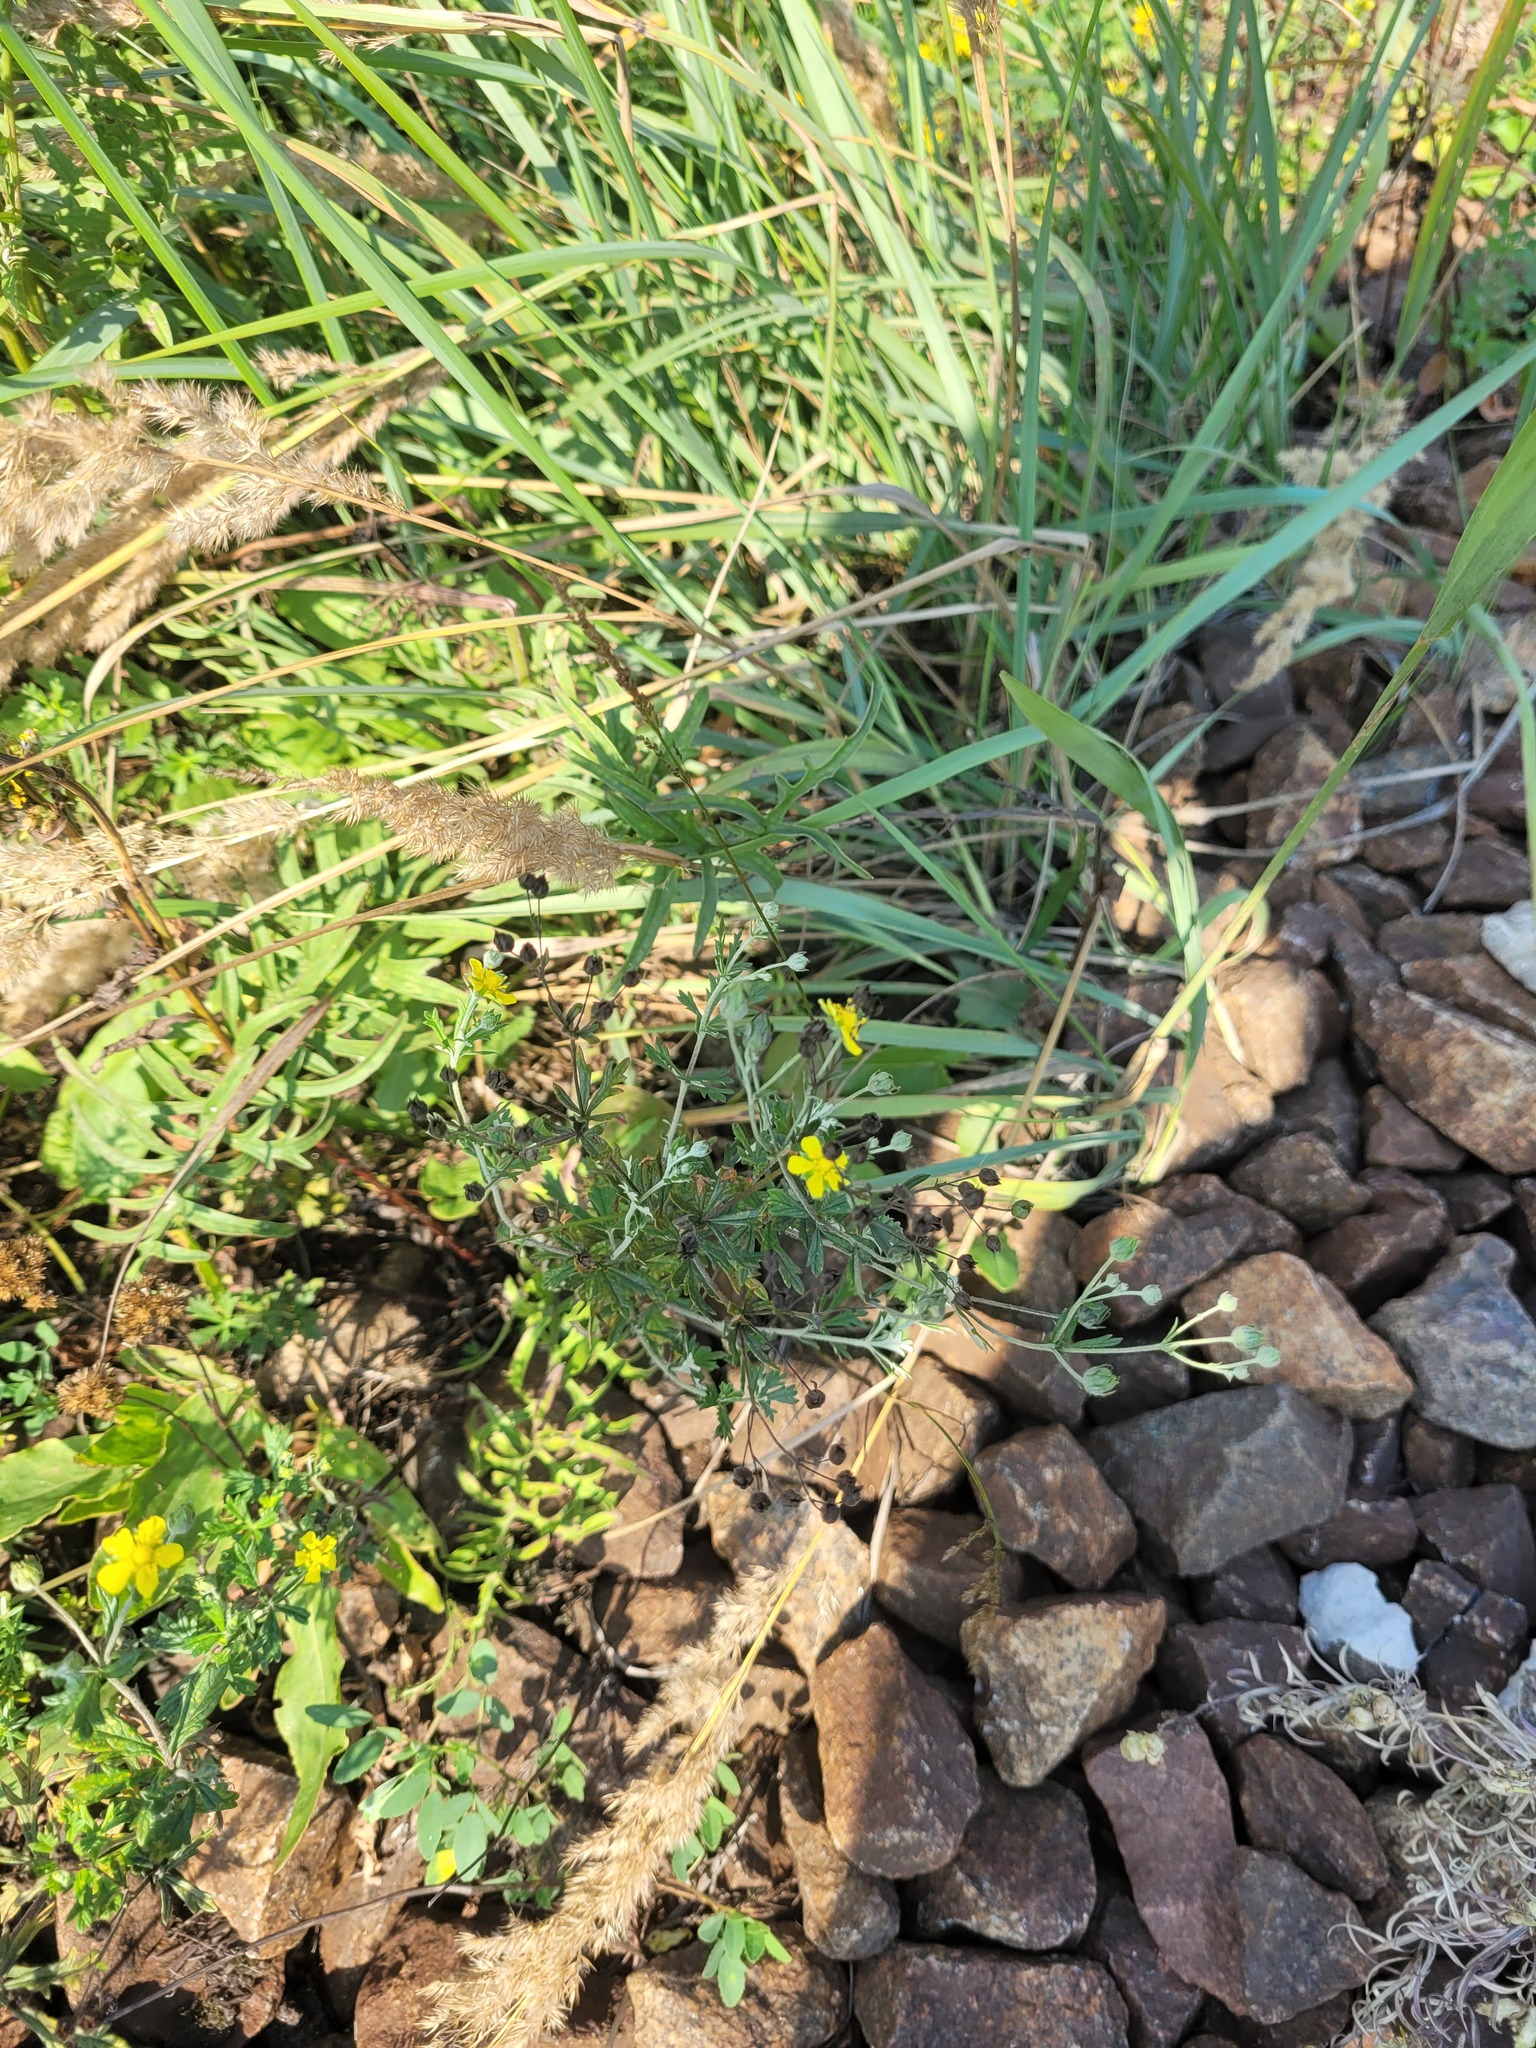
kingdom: Plantae
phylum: Tracheophyta
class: Magnoliopsida
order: Rosales
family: Rosaceae
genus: Potentilla
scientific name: Potentilla argentea
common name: Hoary cinquefoil
